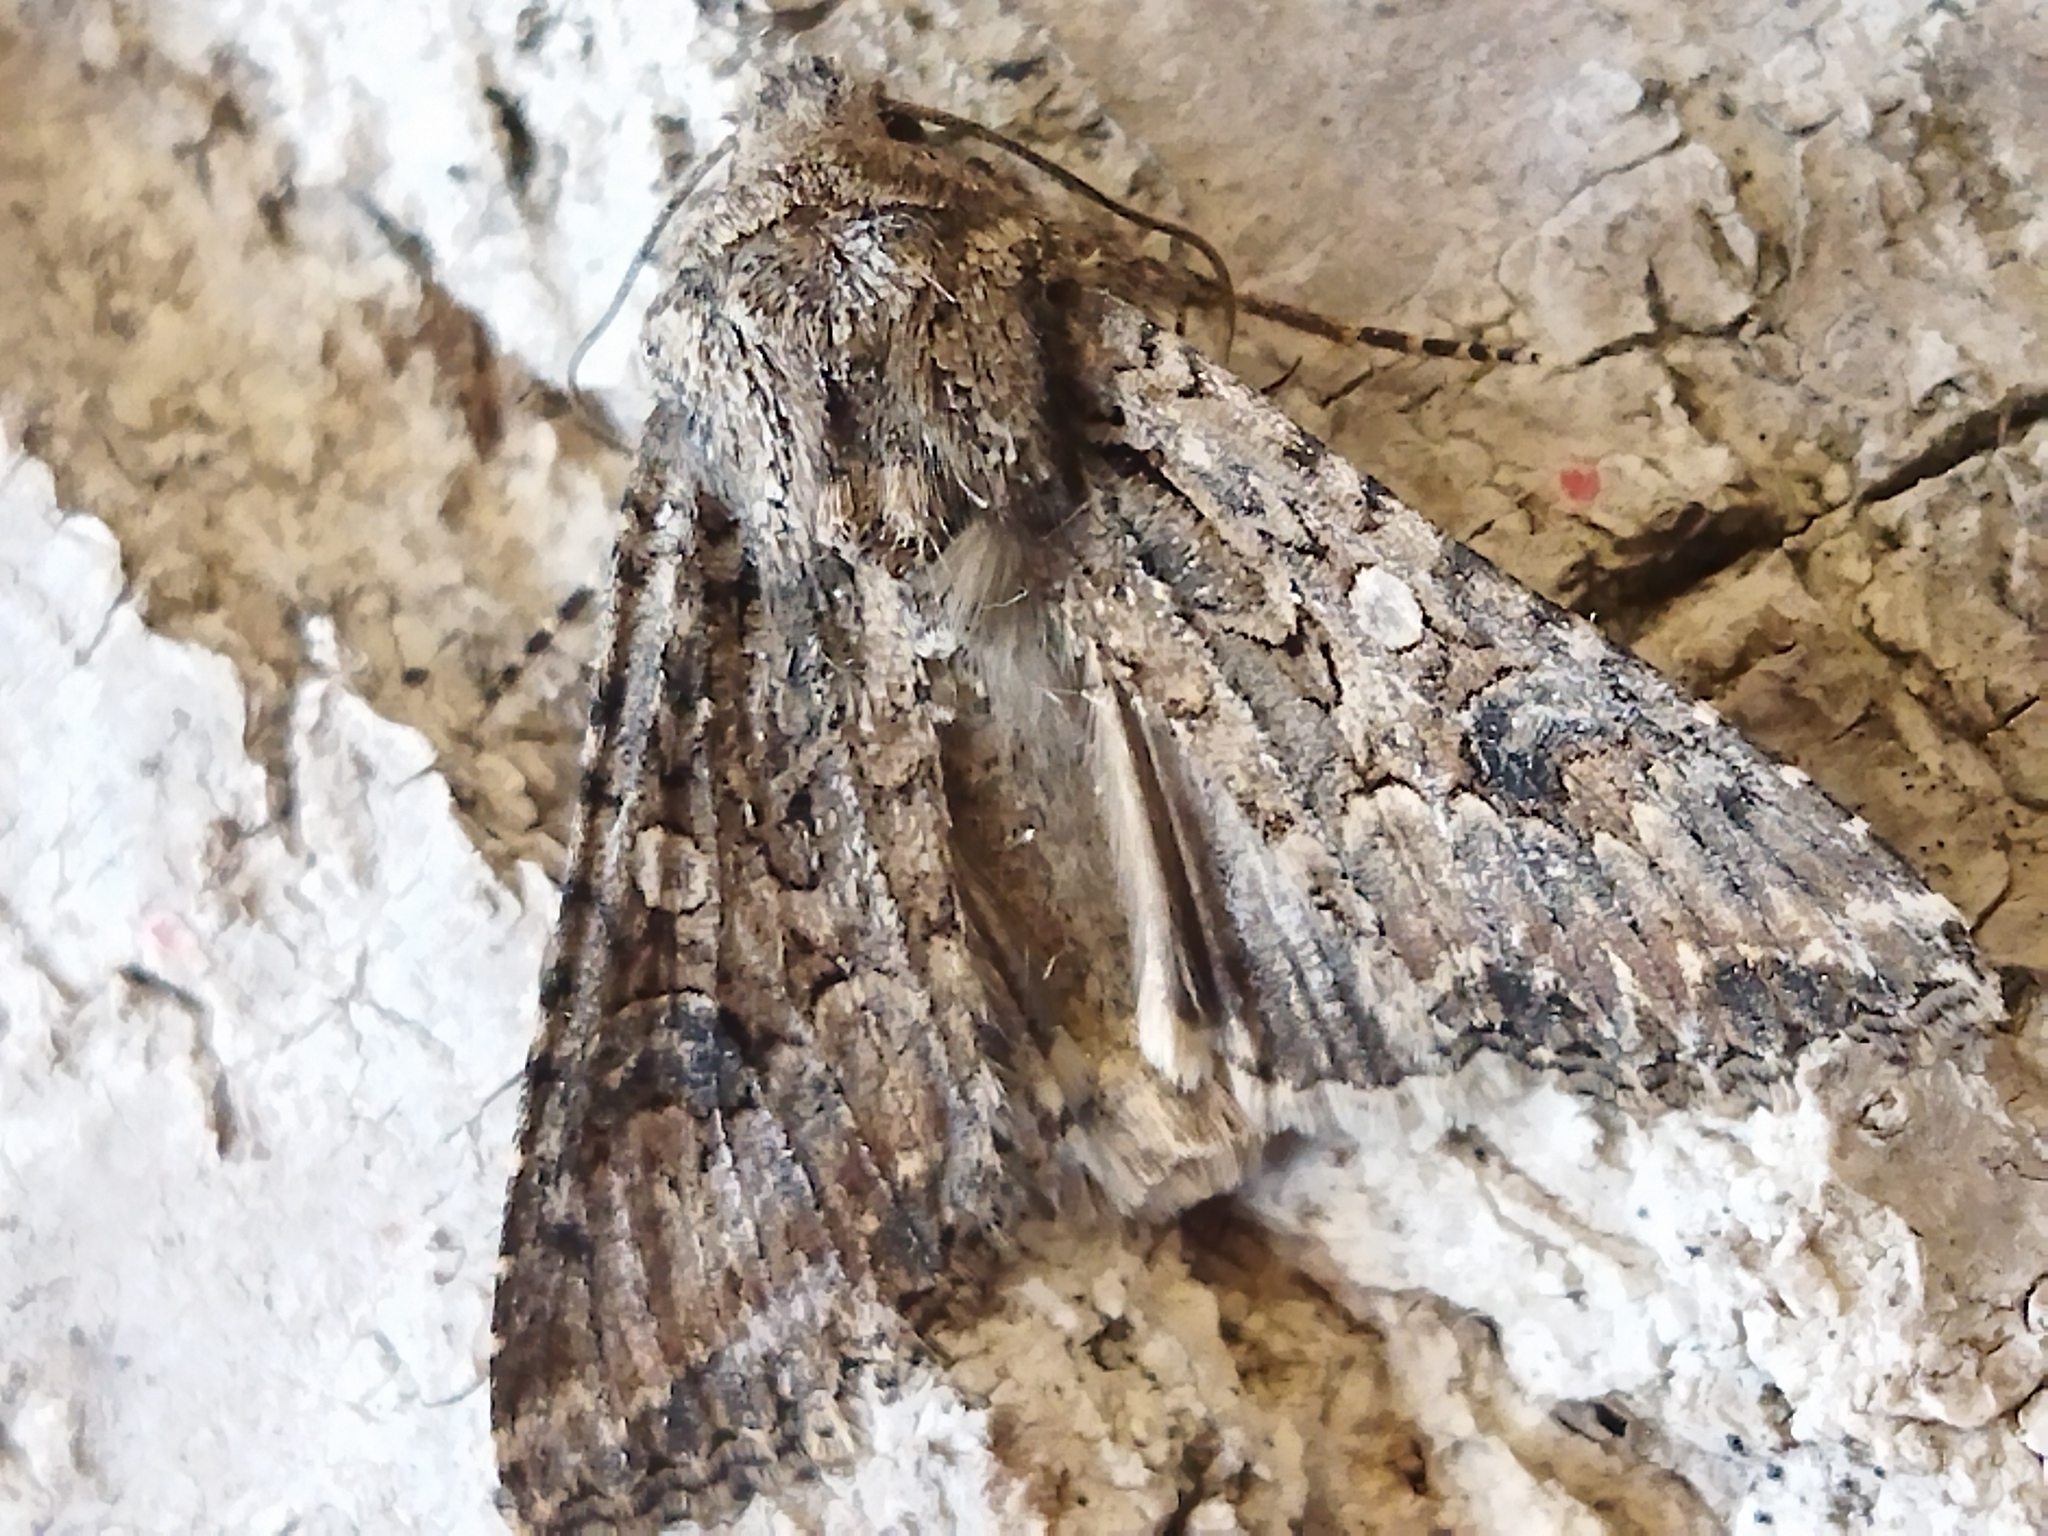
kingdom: Animalia
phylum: Arthropoda
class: Insecta
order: Lepidoptera
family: Noctuidae
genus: Anarta
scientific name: Anarta trifolii
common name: Clover cutworm moth
